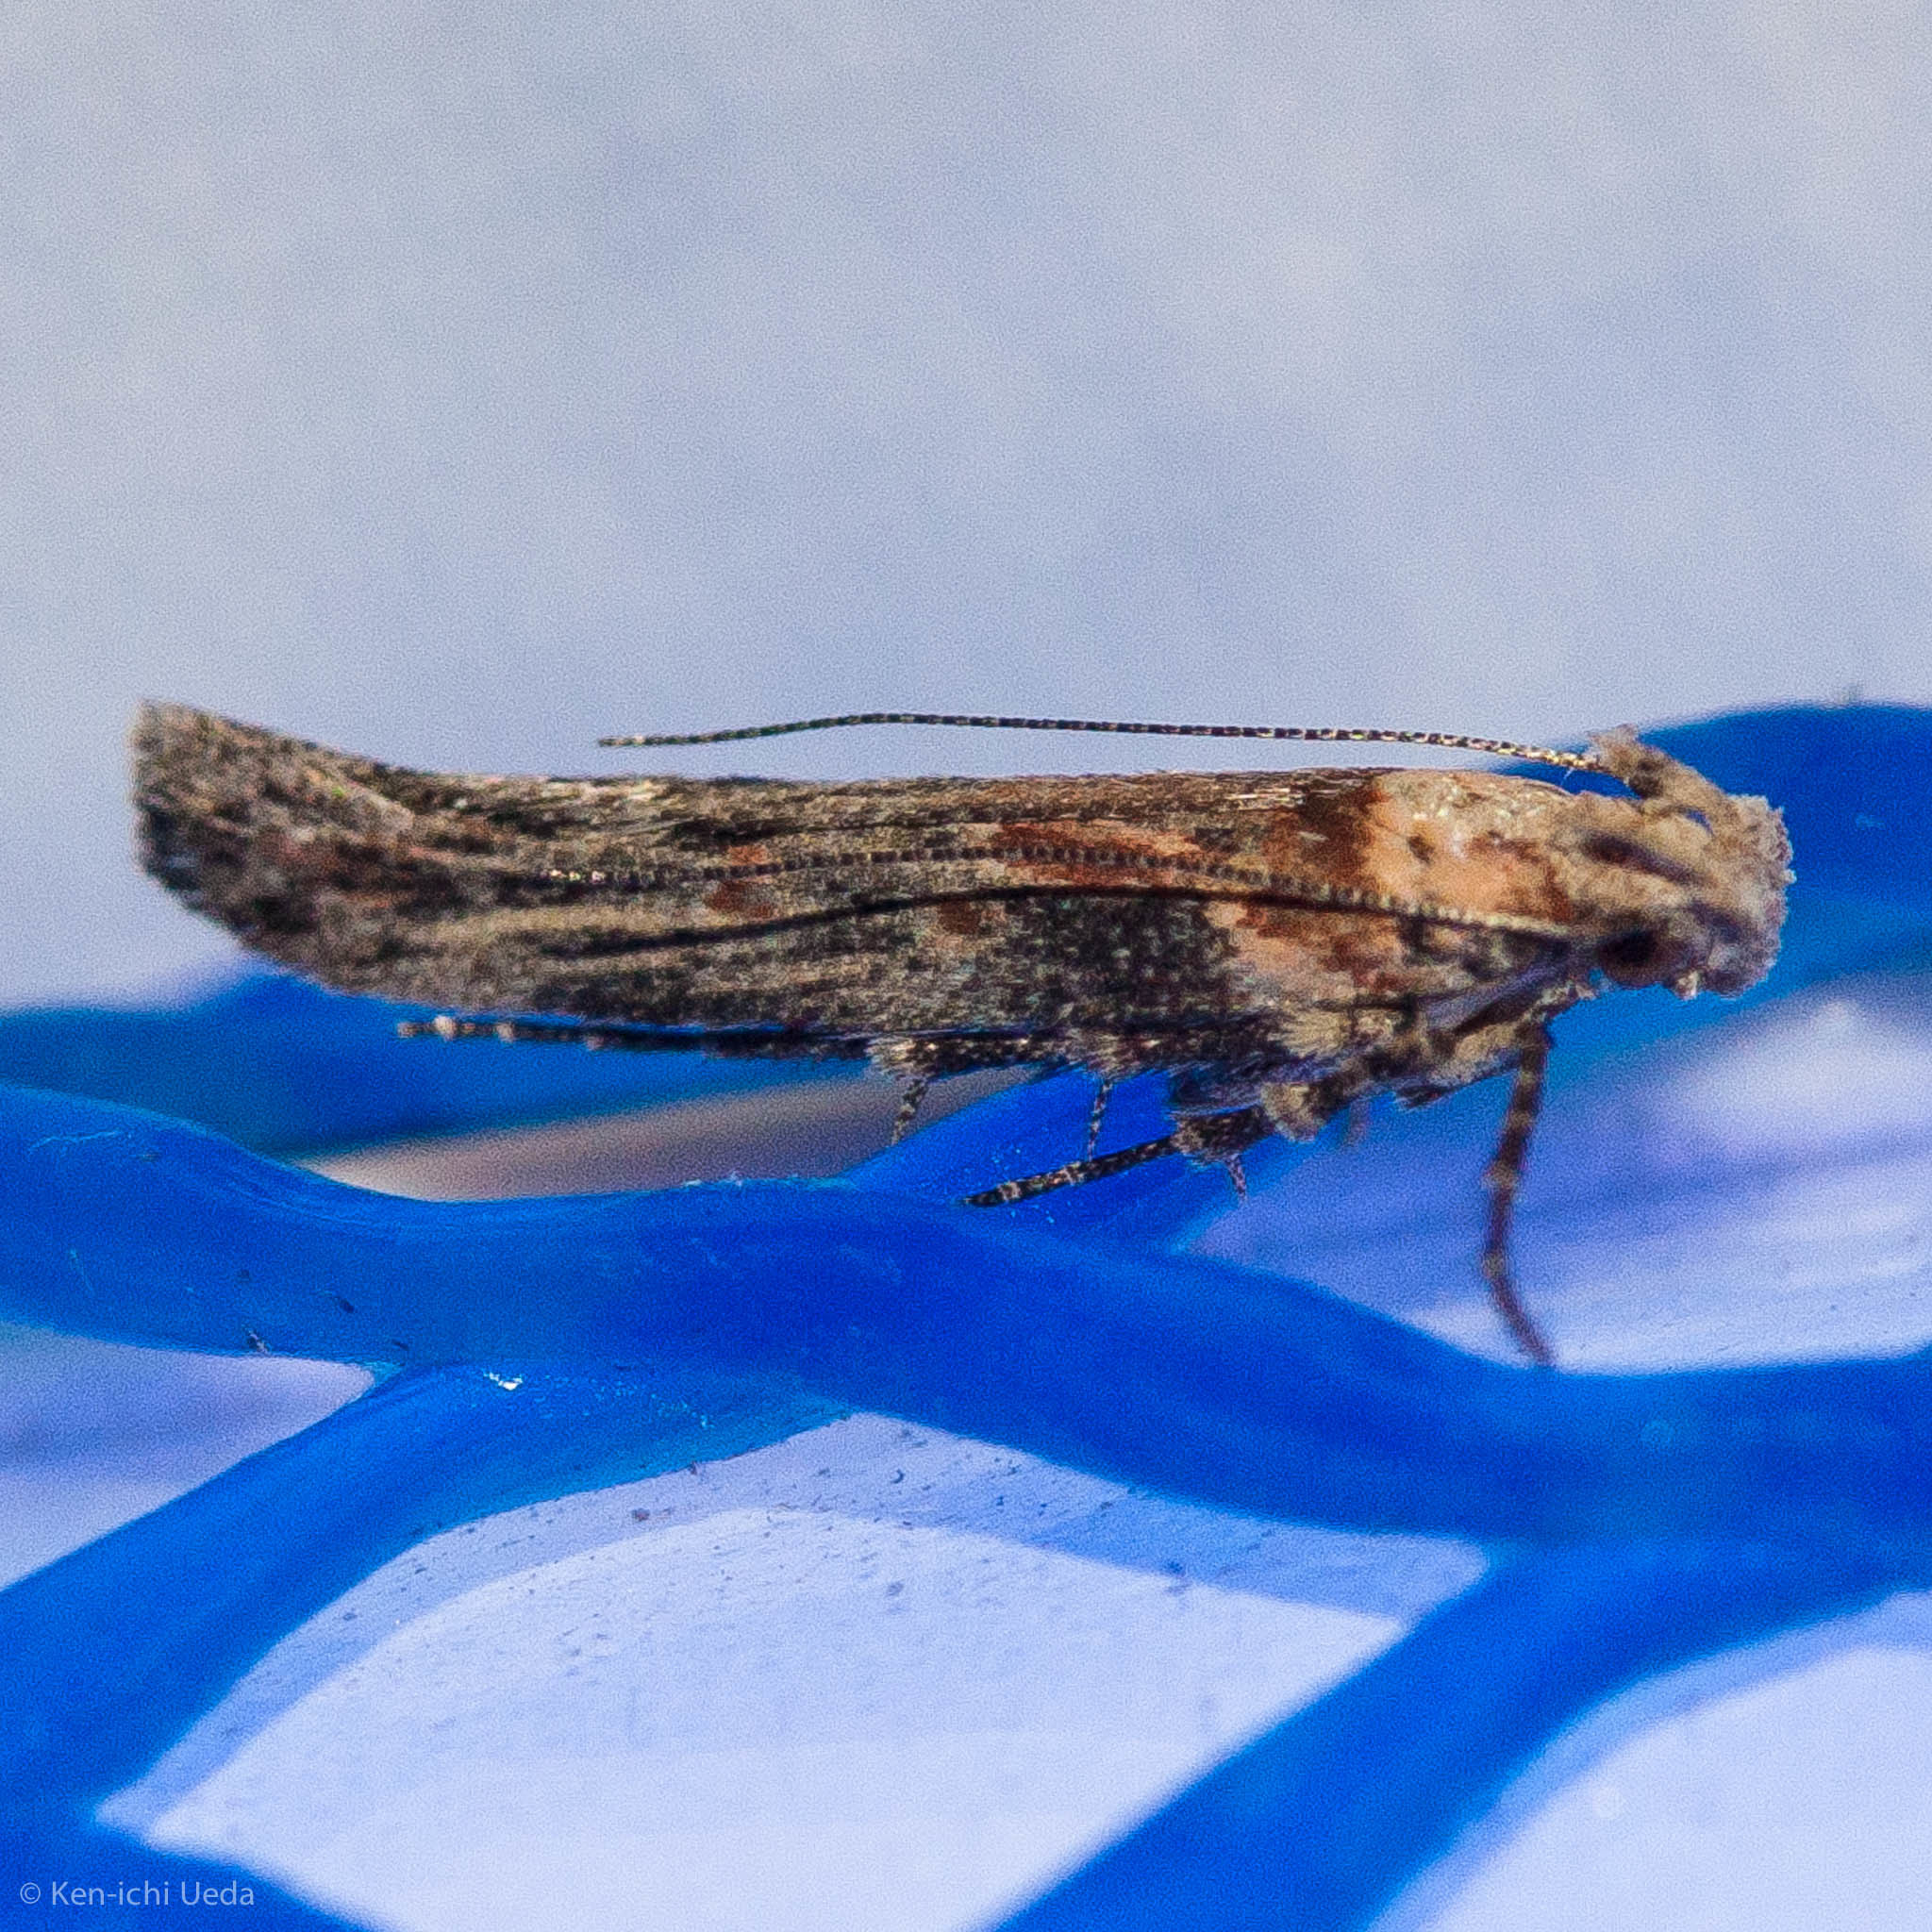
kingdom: Animalia
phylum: Arthropoda
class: Insecta
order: Lepidoptera
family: Gelechiidae
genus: Gnorimoschema
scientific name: Gnorimoschema baccharisella
